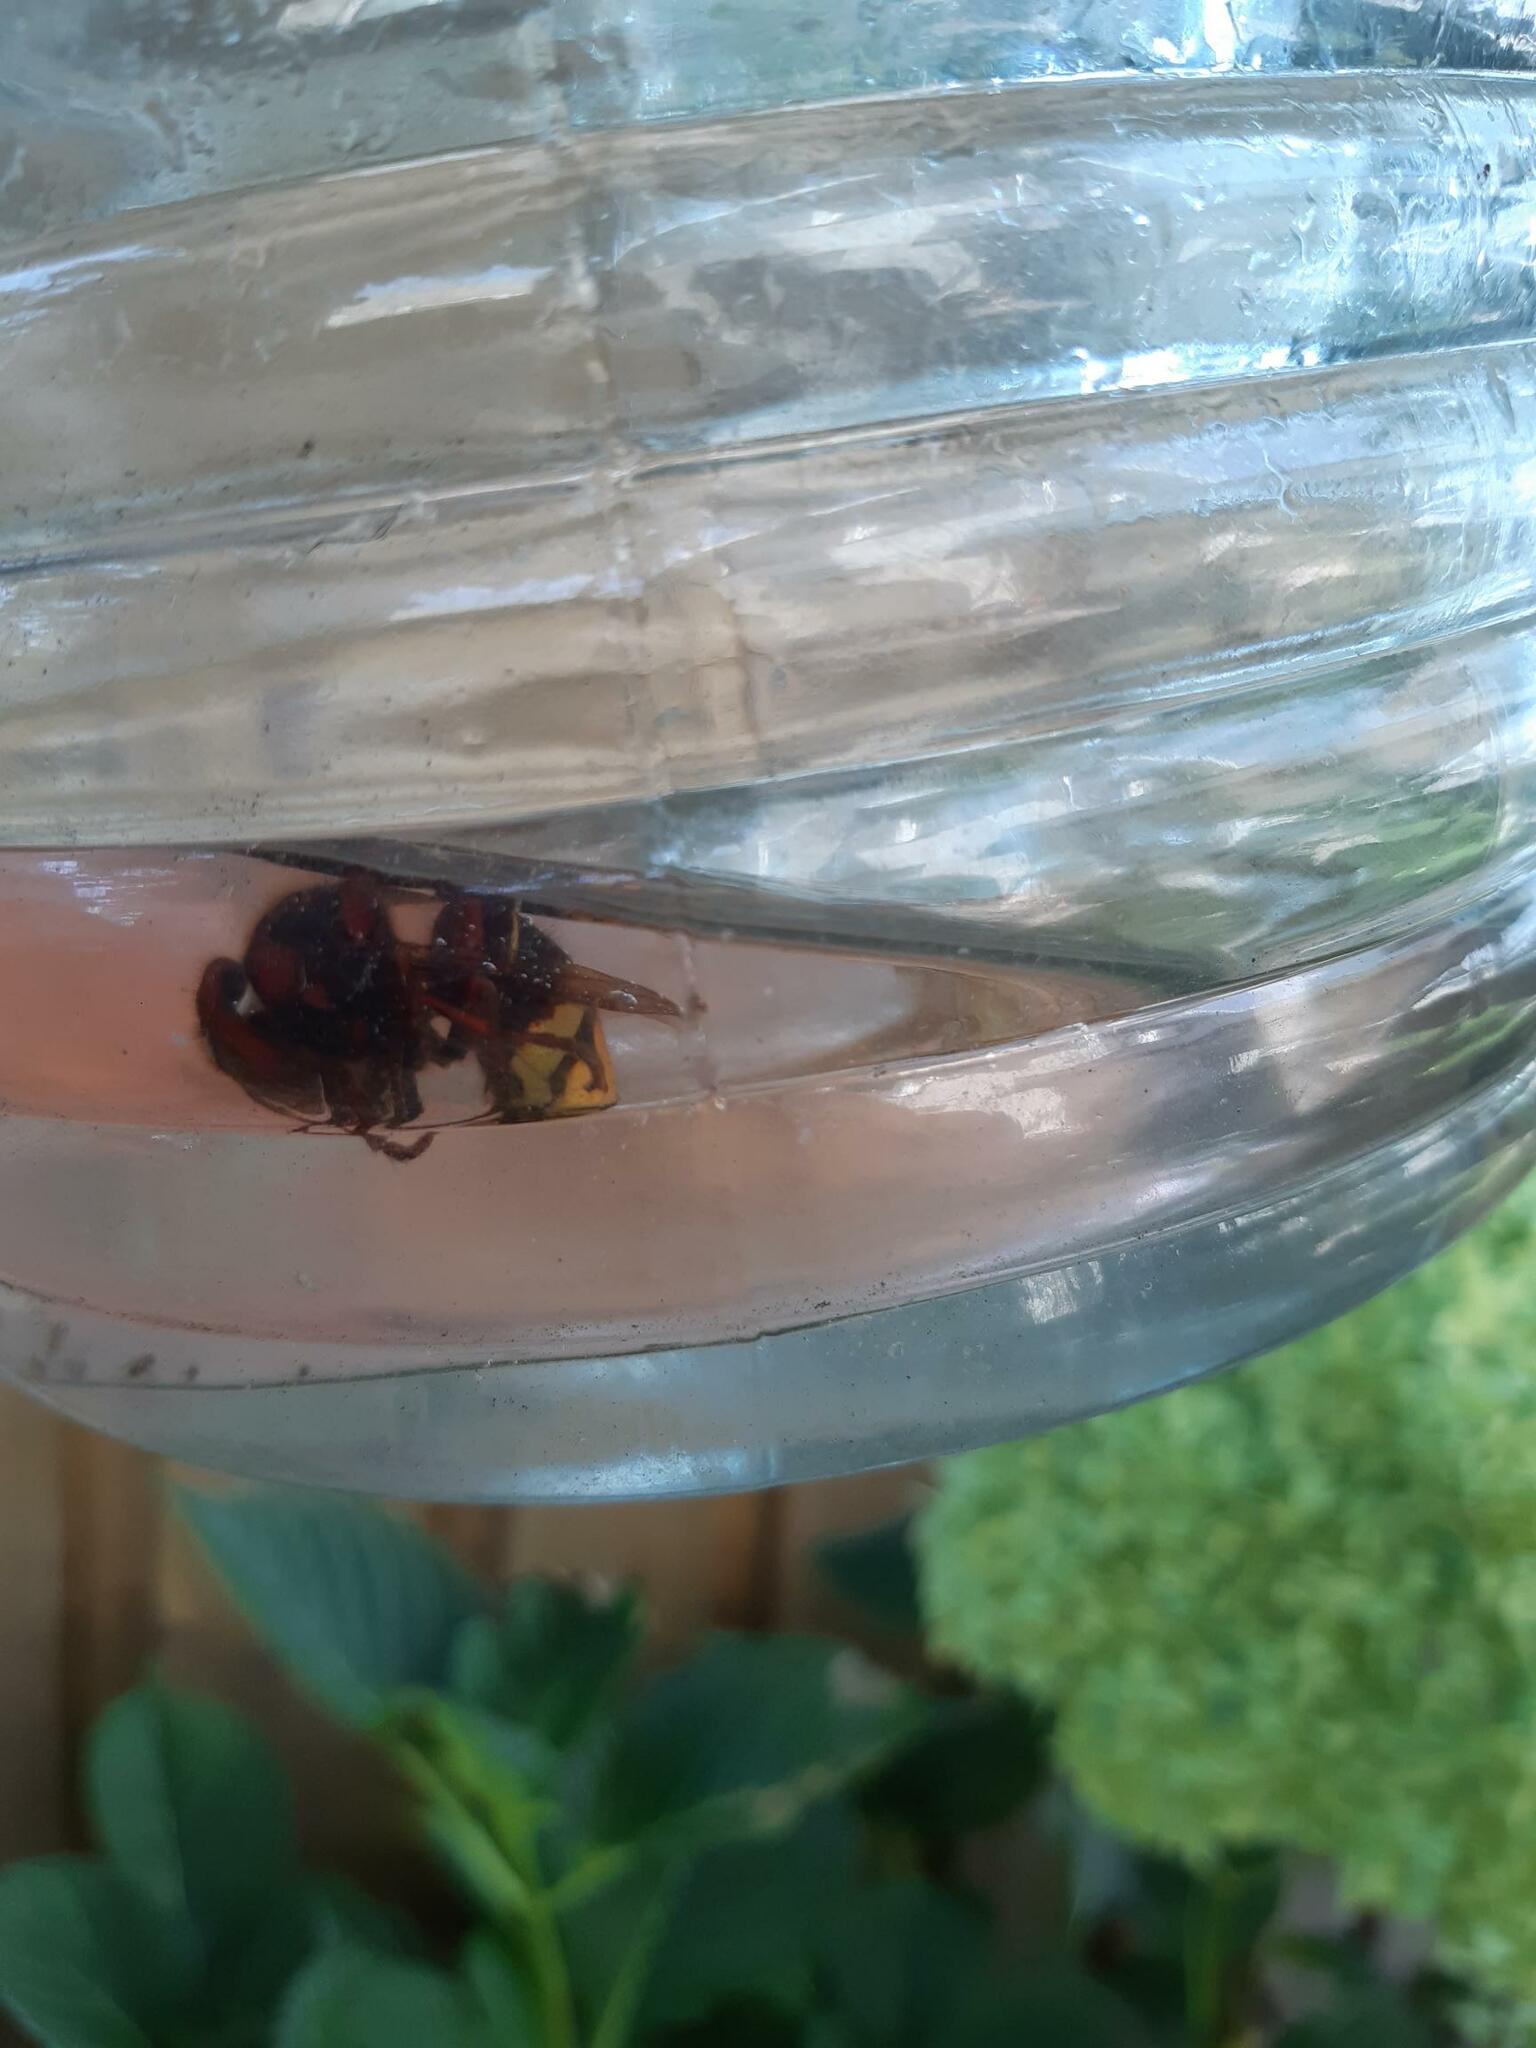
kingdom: Animalia
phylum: Arthropoda
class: Insecta
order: Hymenoptera
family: Vespidae
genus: Vespa
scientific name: Vespa crabro
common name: Hornet
